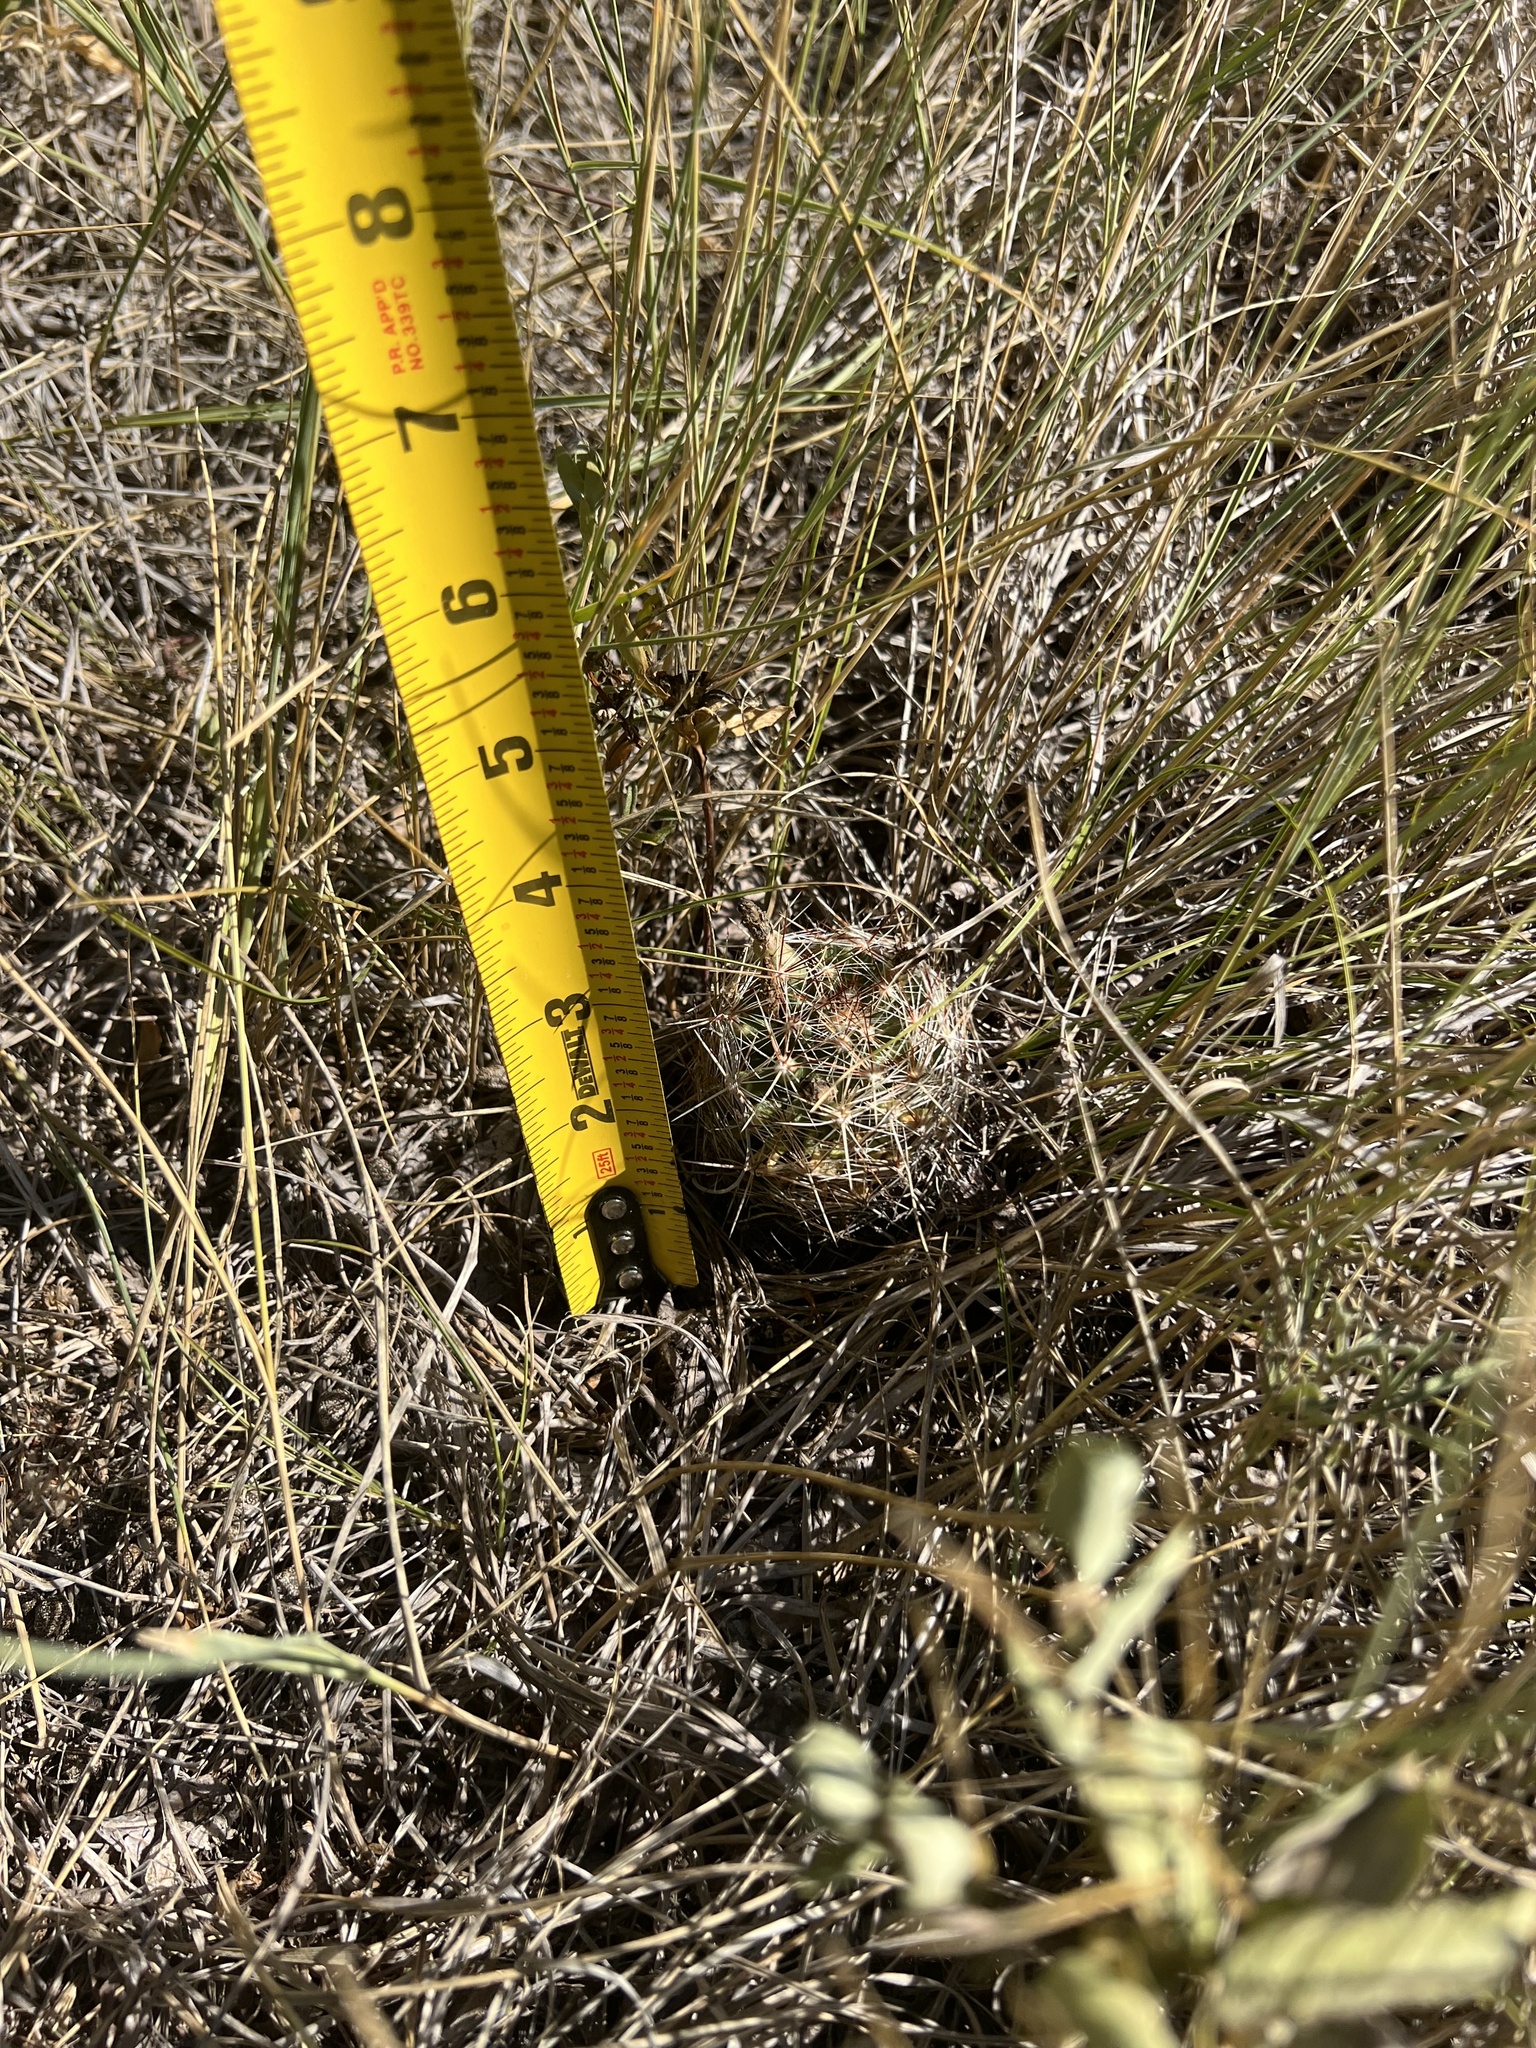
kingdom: Plantae
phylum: Tracheophyta
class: Magnoliopsida
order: Caryophyllales
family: Cactaceae
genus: Pelecyphora
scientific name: Pelecyphora vivipara
